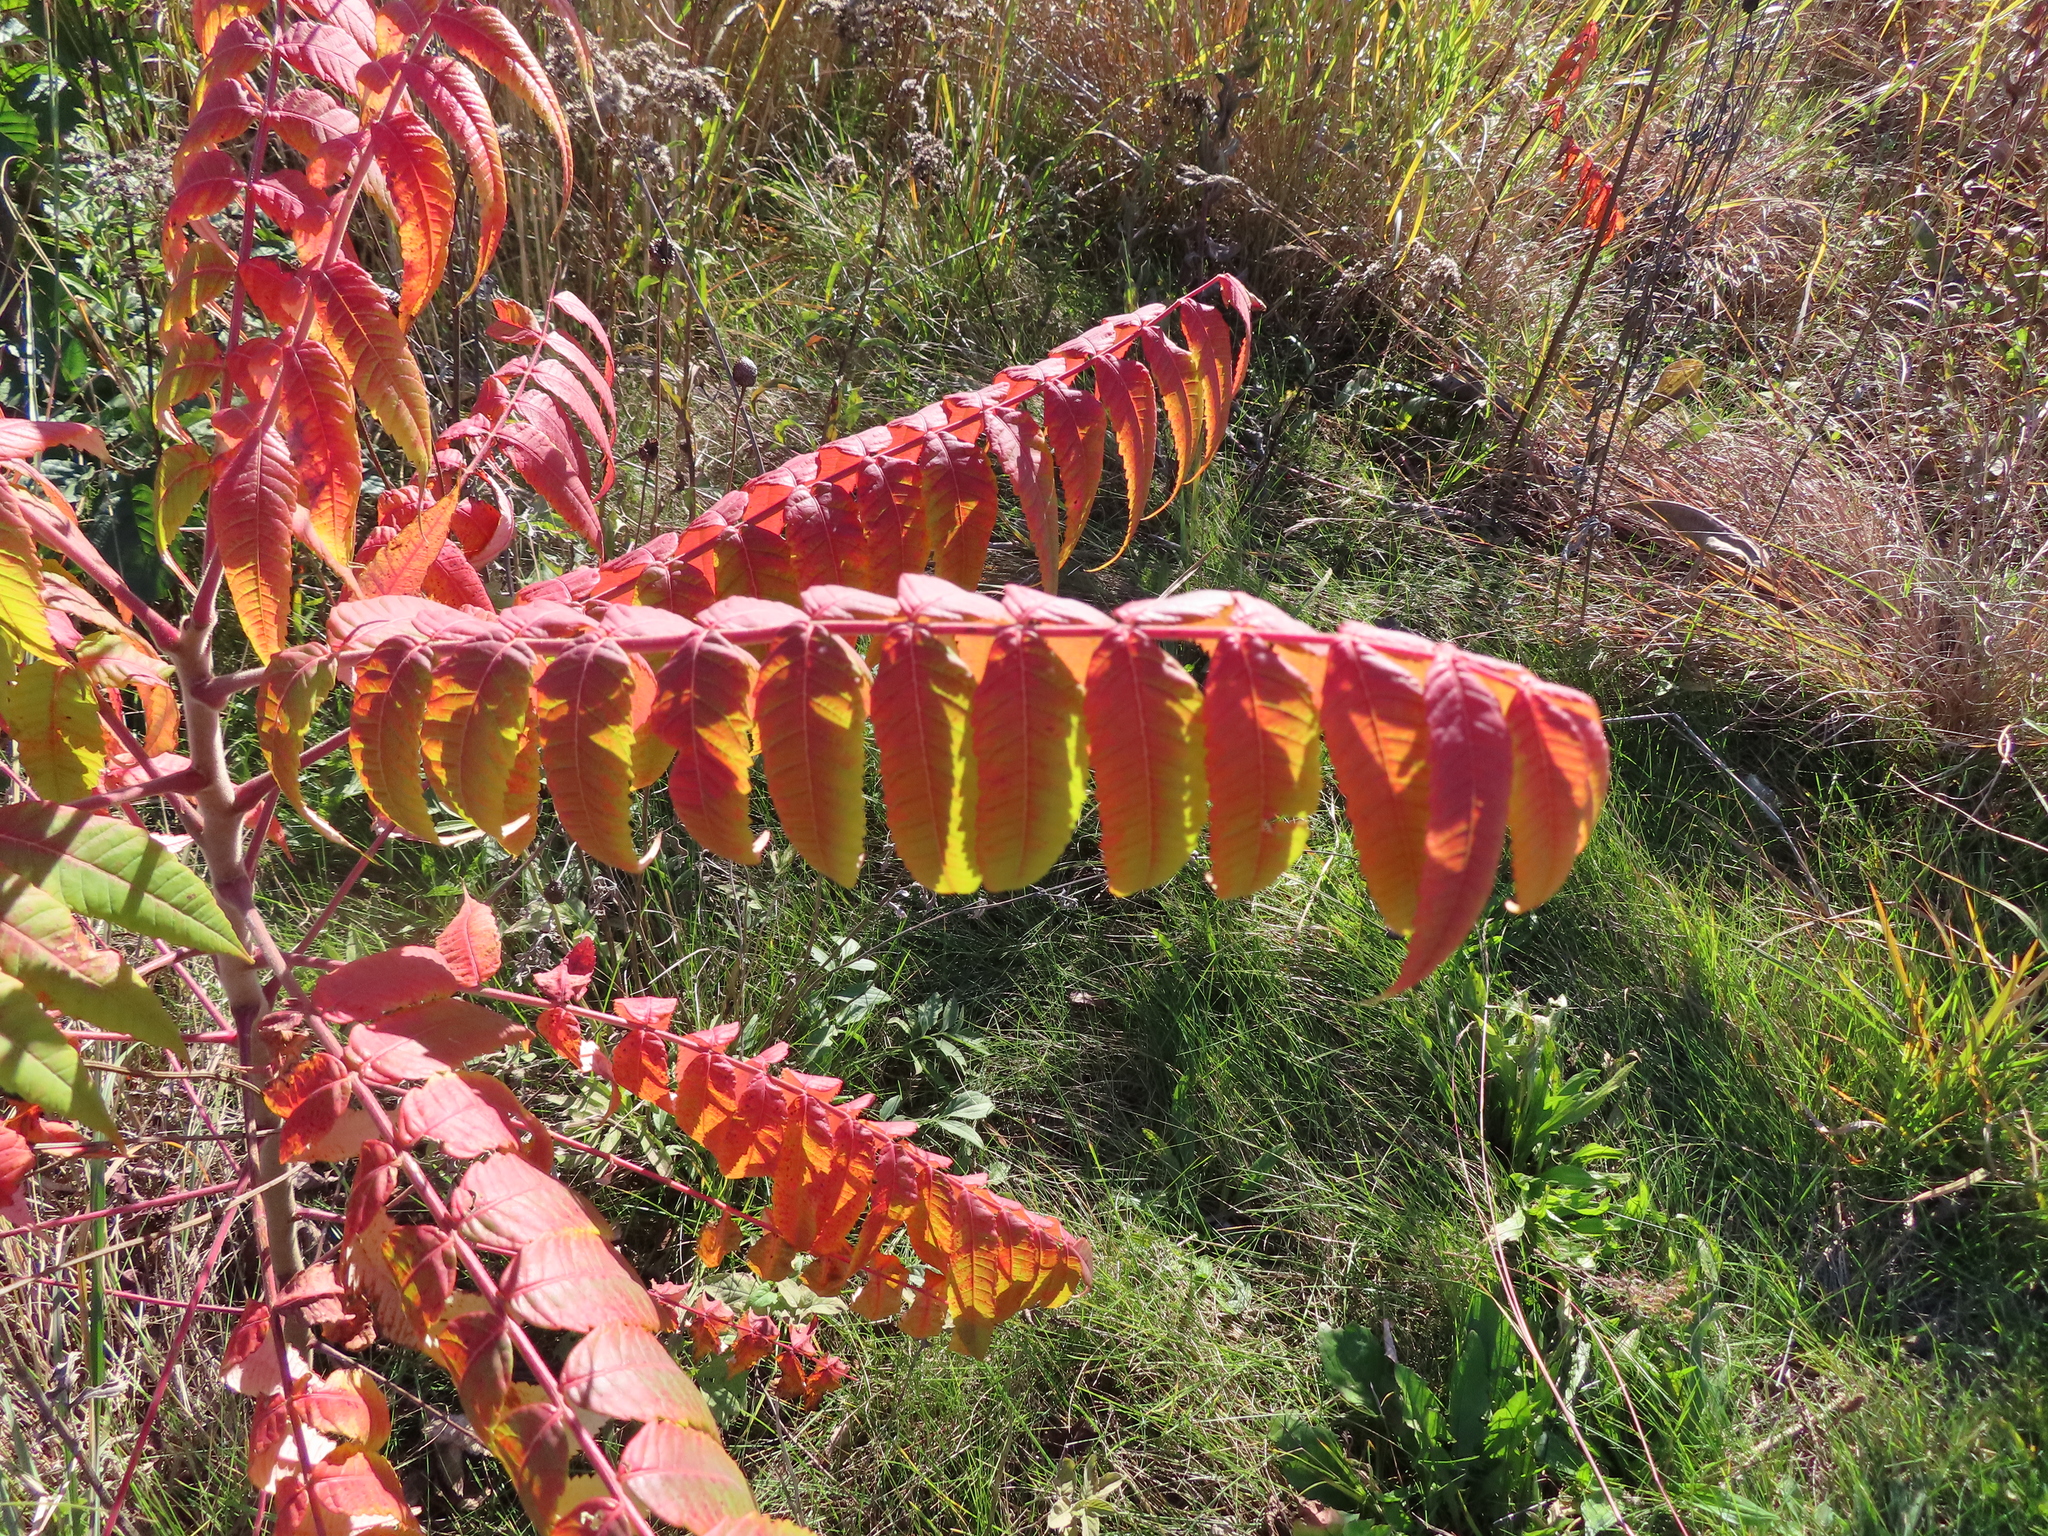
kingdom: Plantae
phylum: Tracheophyta
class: Magnoliopsida
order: Sapindales
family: Anacardiaceae
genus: Rhus
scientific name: Rhus typhina
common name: Staghorn sumac
